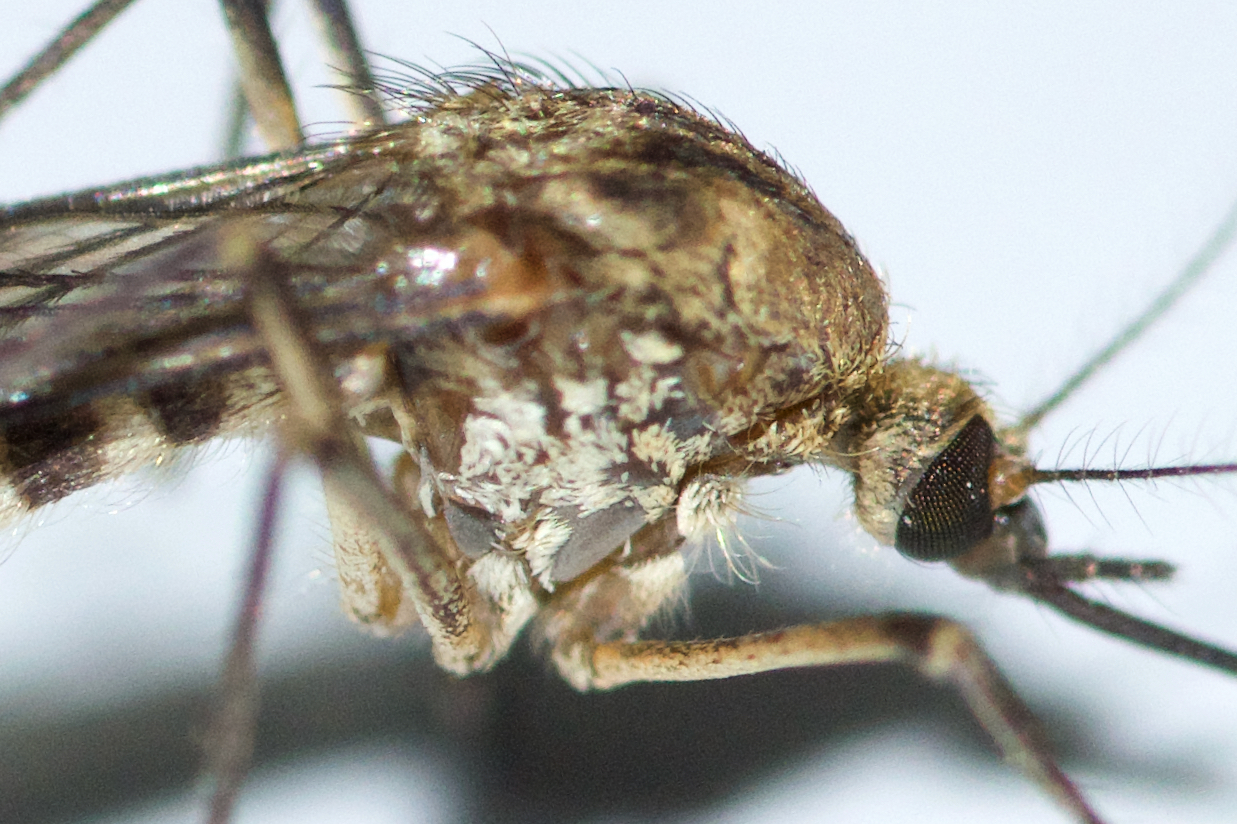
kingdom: Animalia
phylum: Arthropoda
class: Insecta
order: Diptera
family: Culicidae
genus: Aedes
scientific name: Aedes communis
